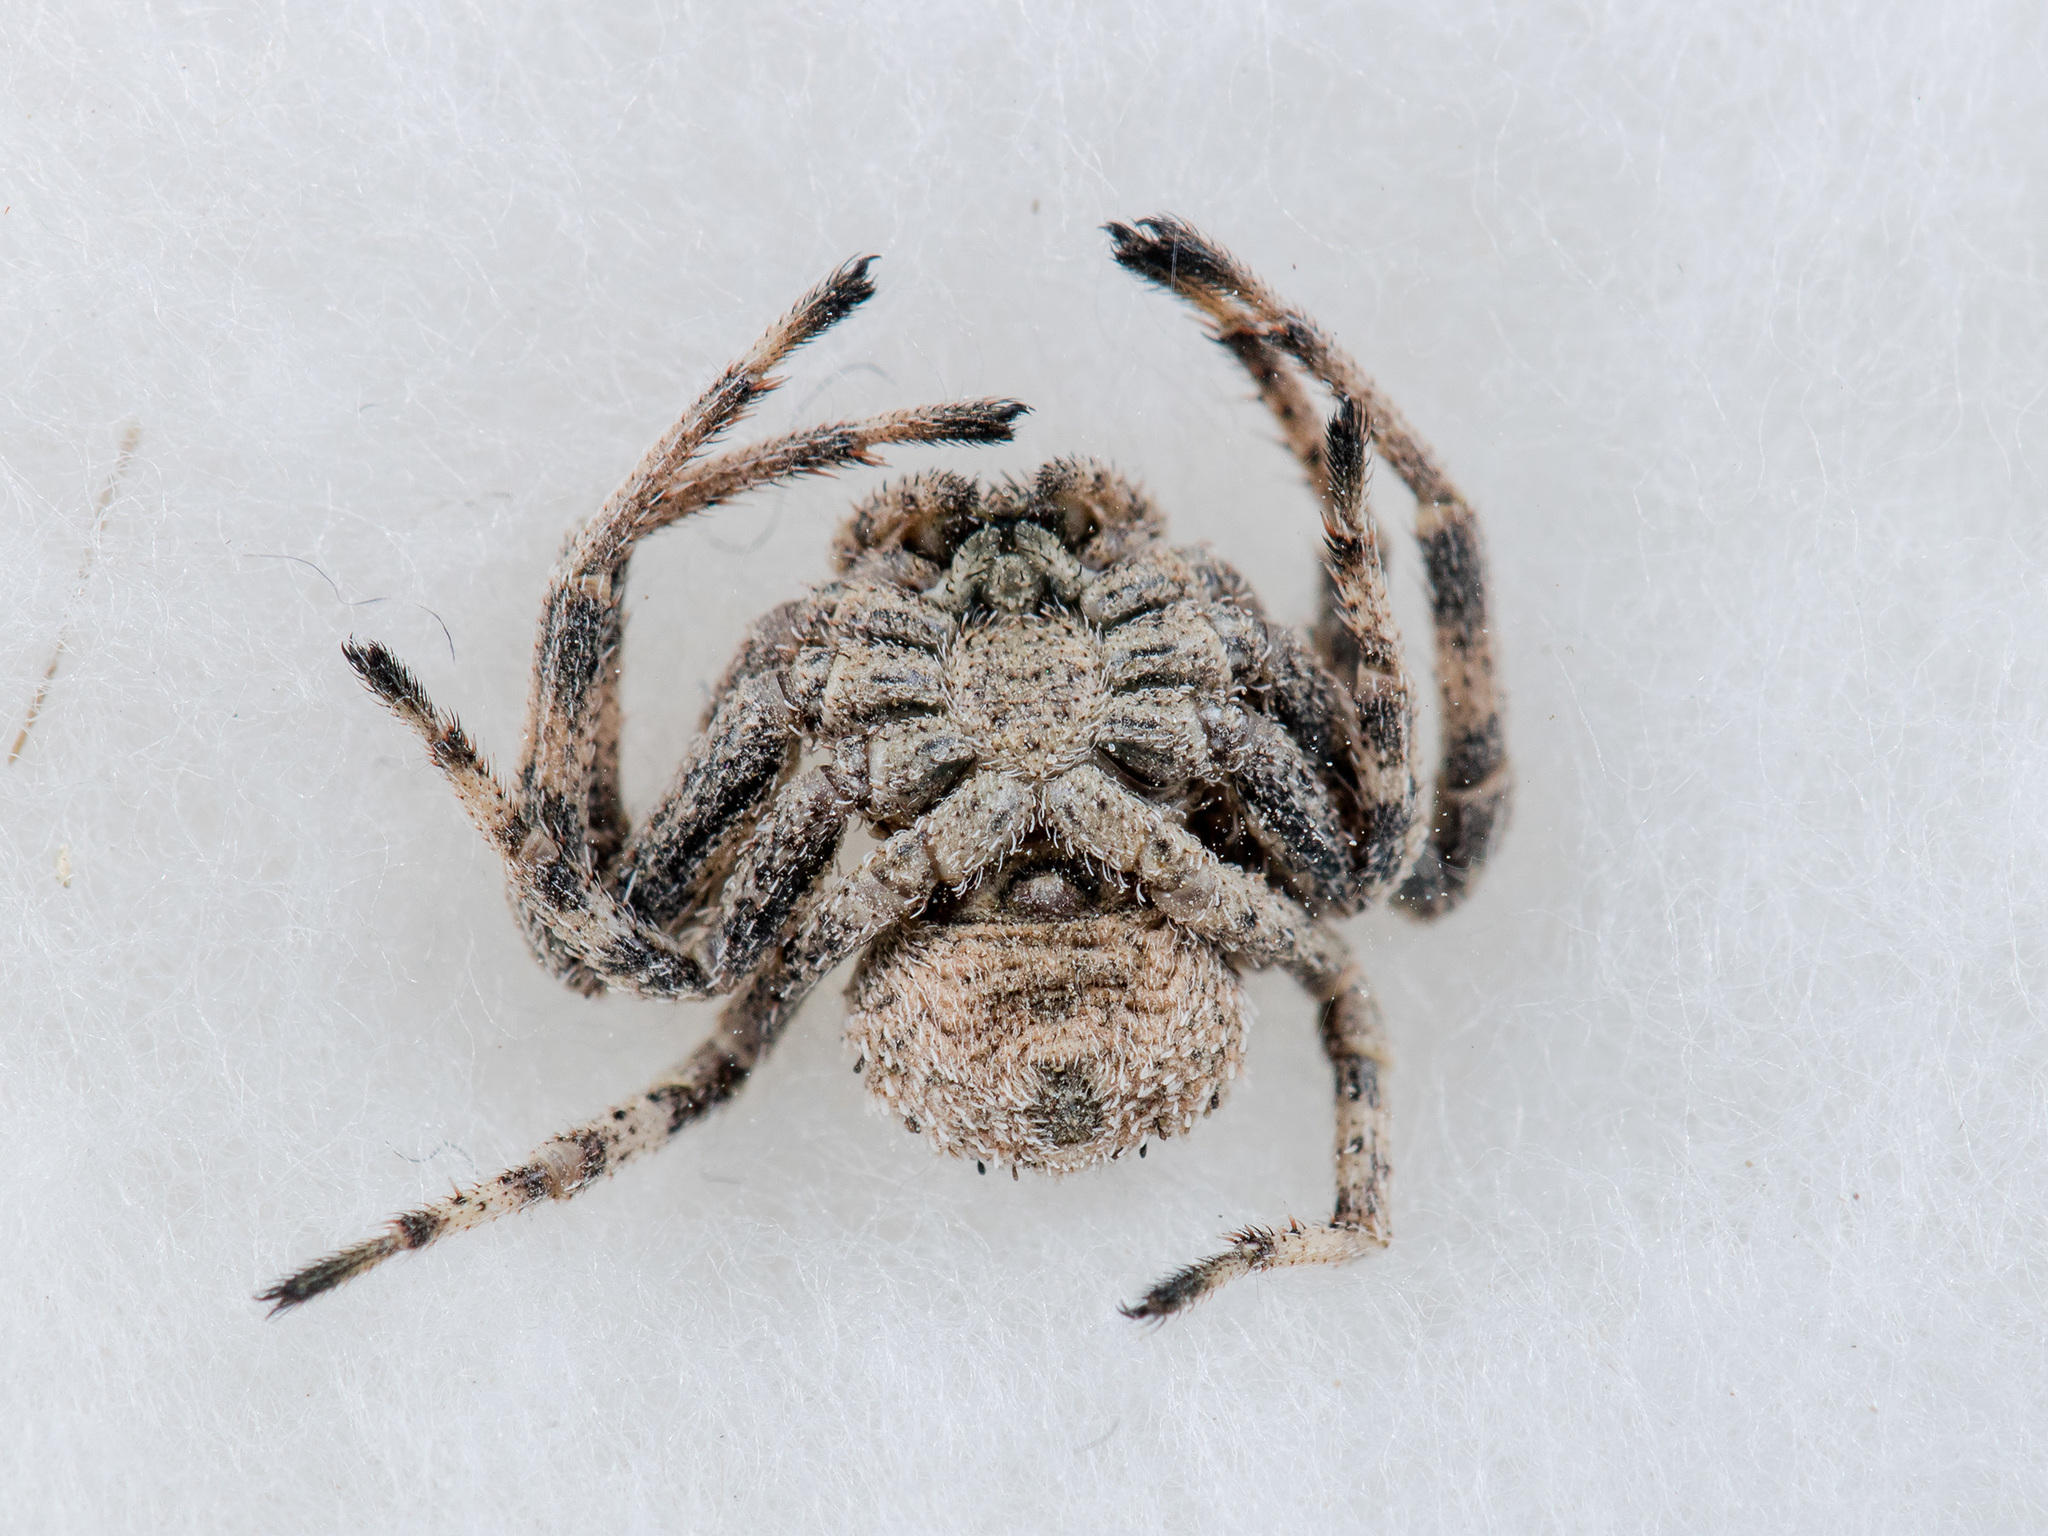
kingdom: Animalia
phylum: Arthropoda
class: Arachnida
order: Araneae
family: Thomisidae
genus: Ozyptila
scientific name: Ozyptila lugubris
